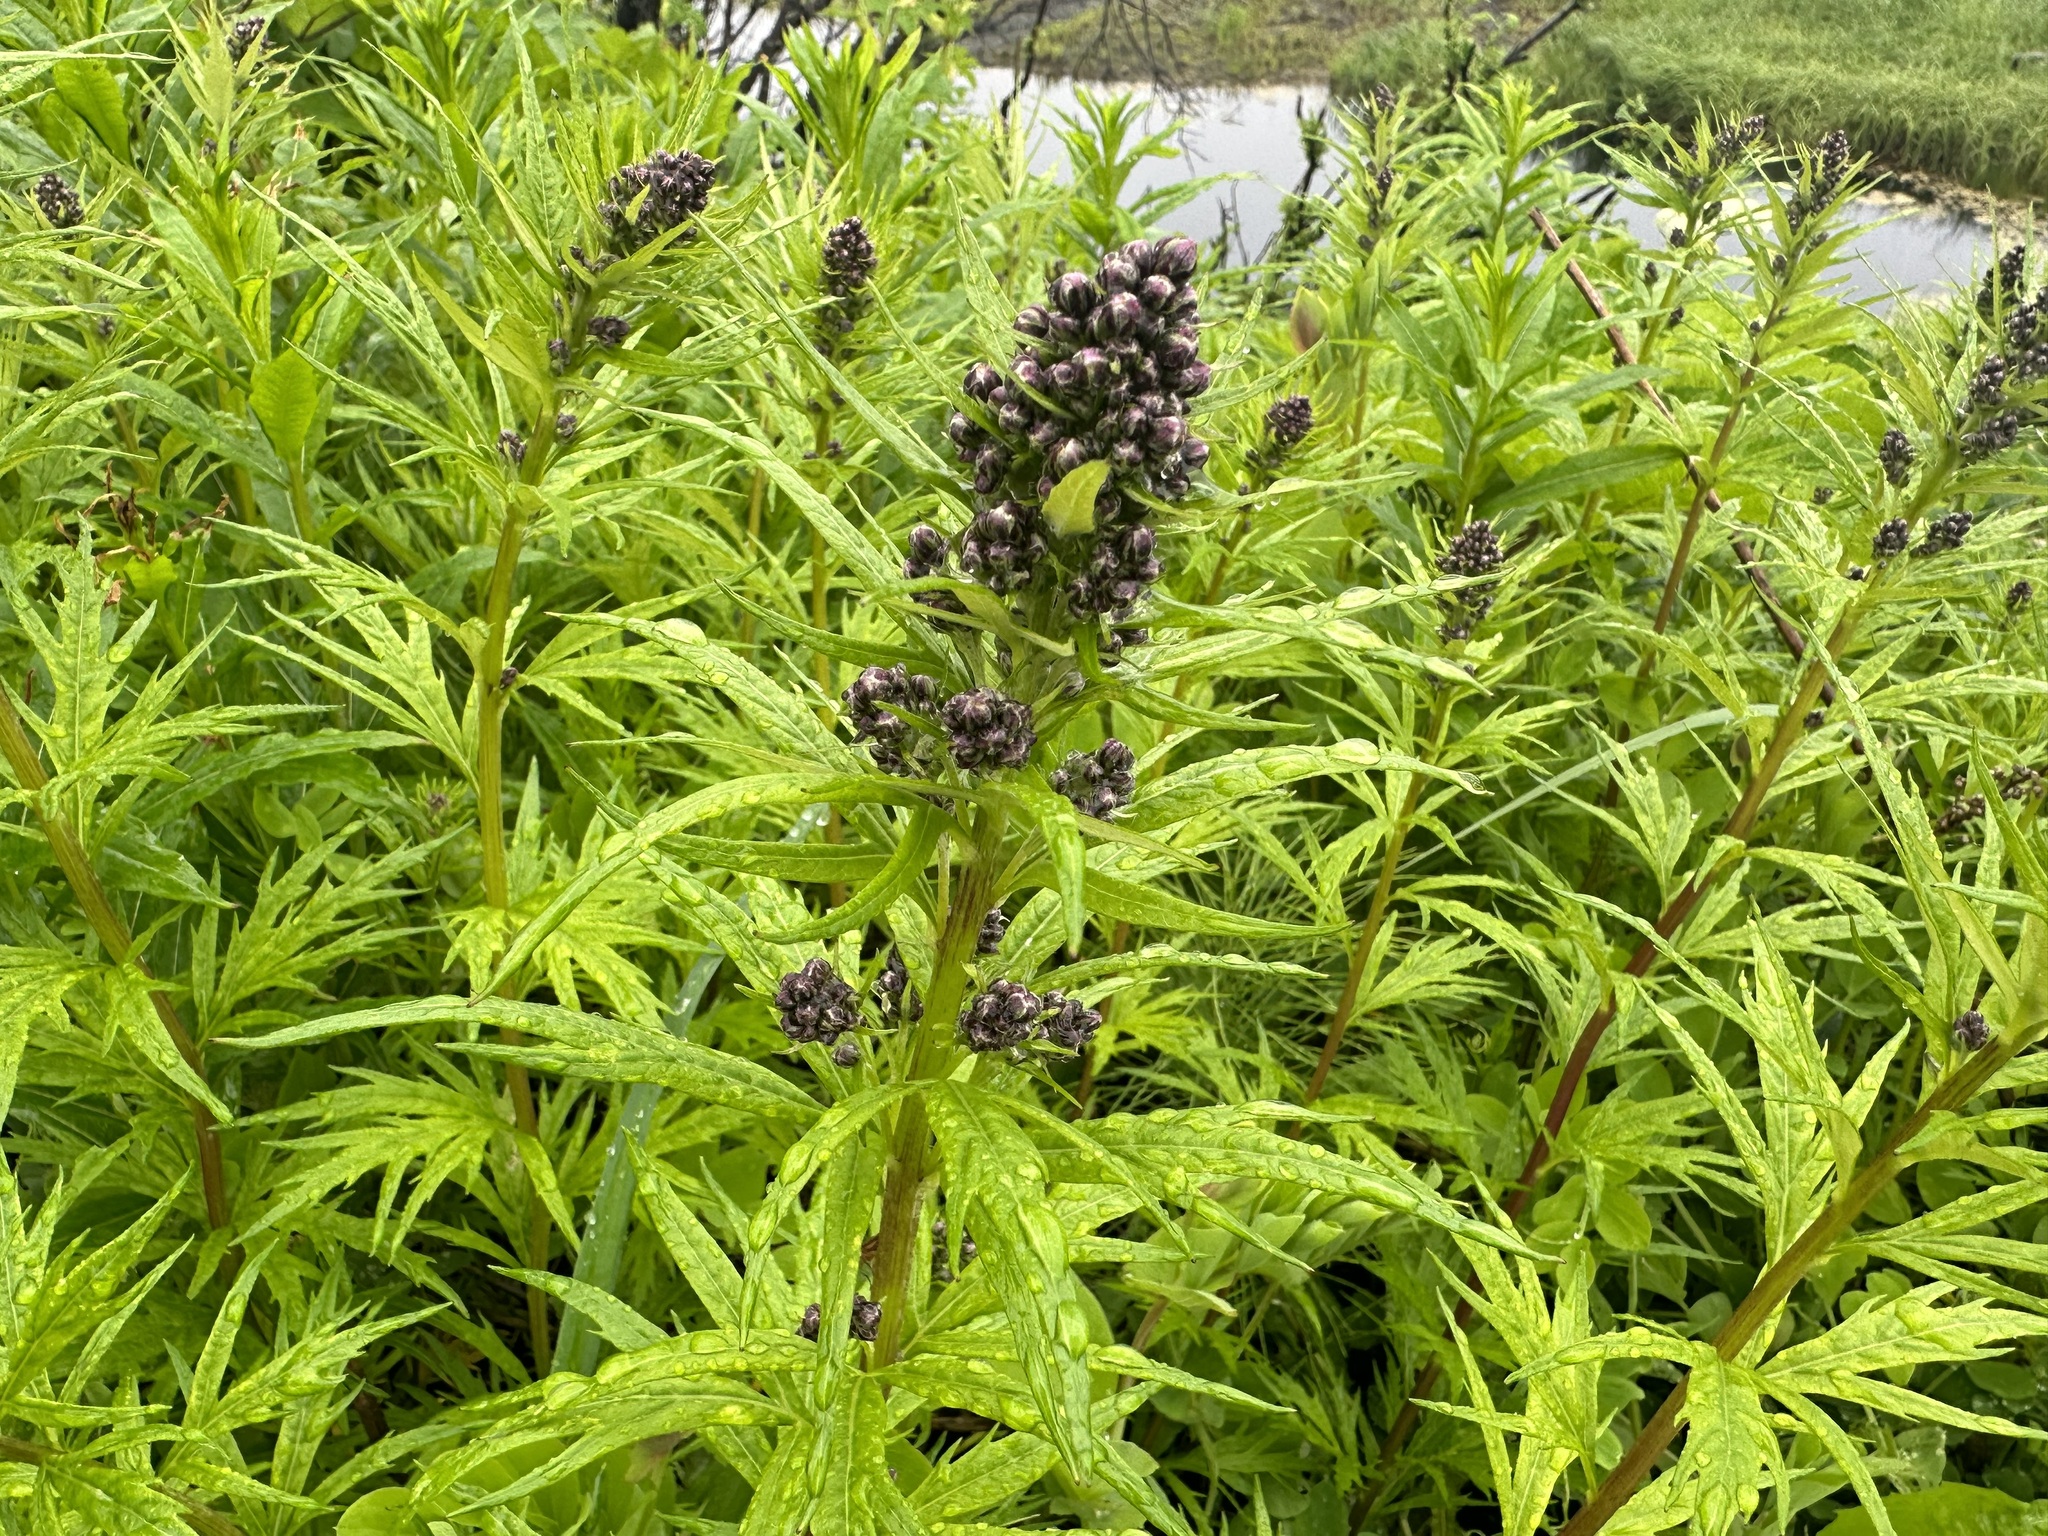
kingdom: Plantae
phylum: Tracheophyta
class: Magnoliopsida
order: Asterales
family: Asteraceae
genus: Artemisia
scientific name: Artemisia tilesii
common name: Aleutian mugwort
